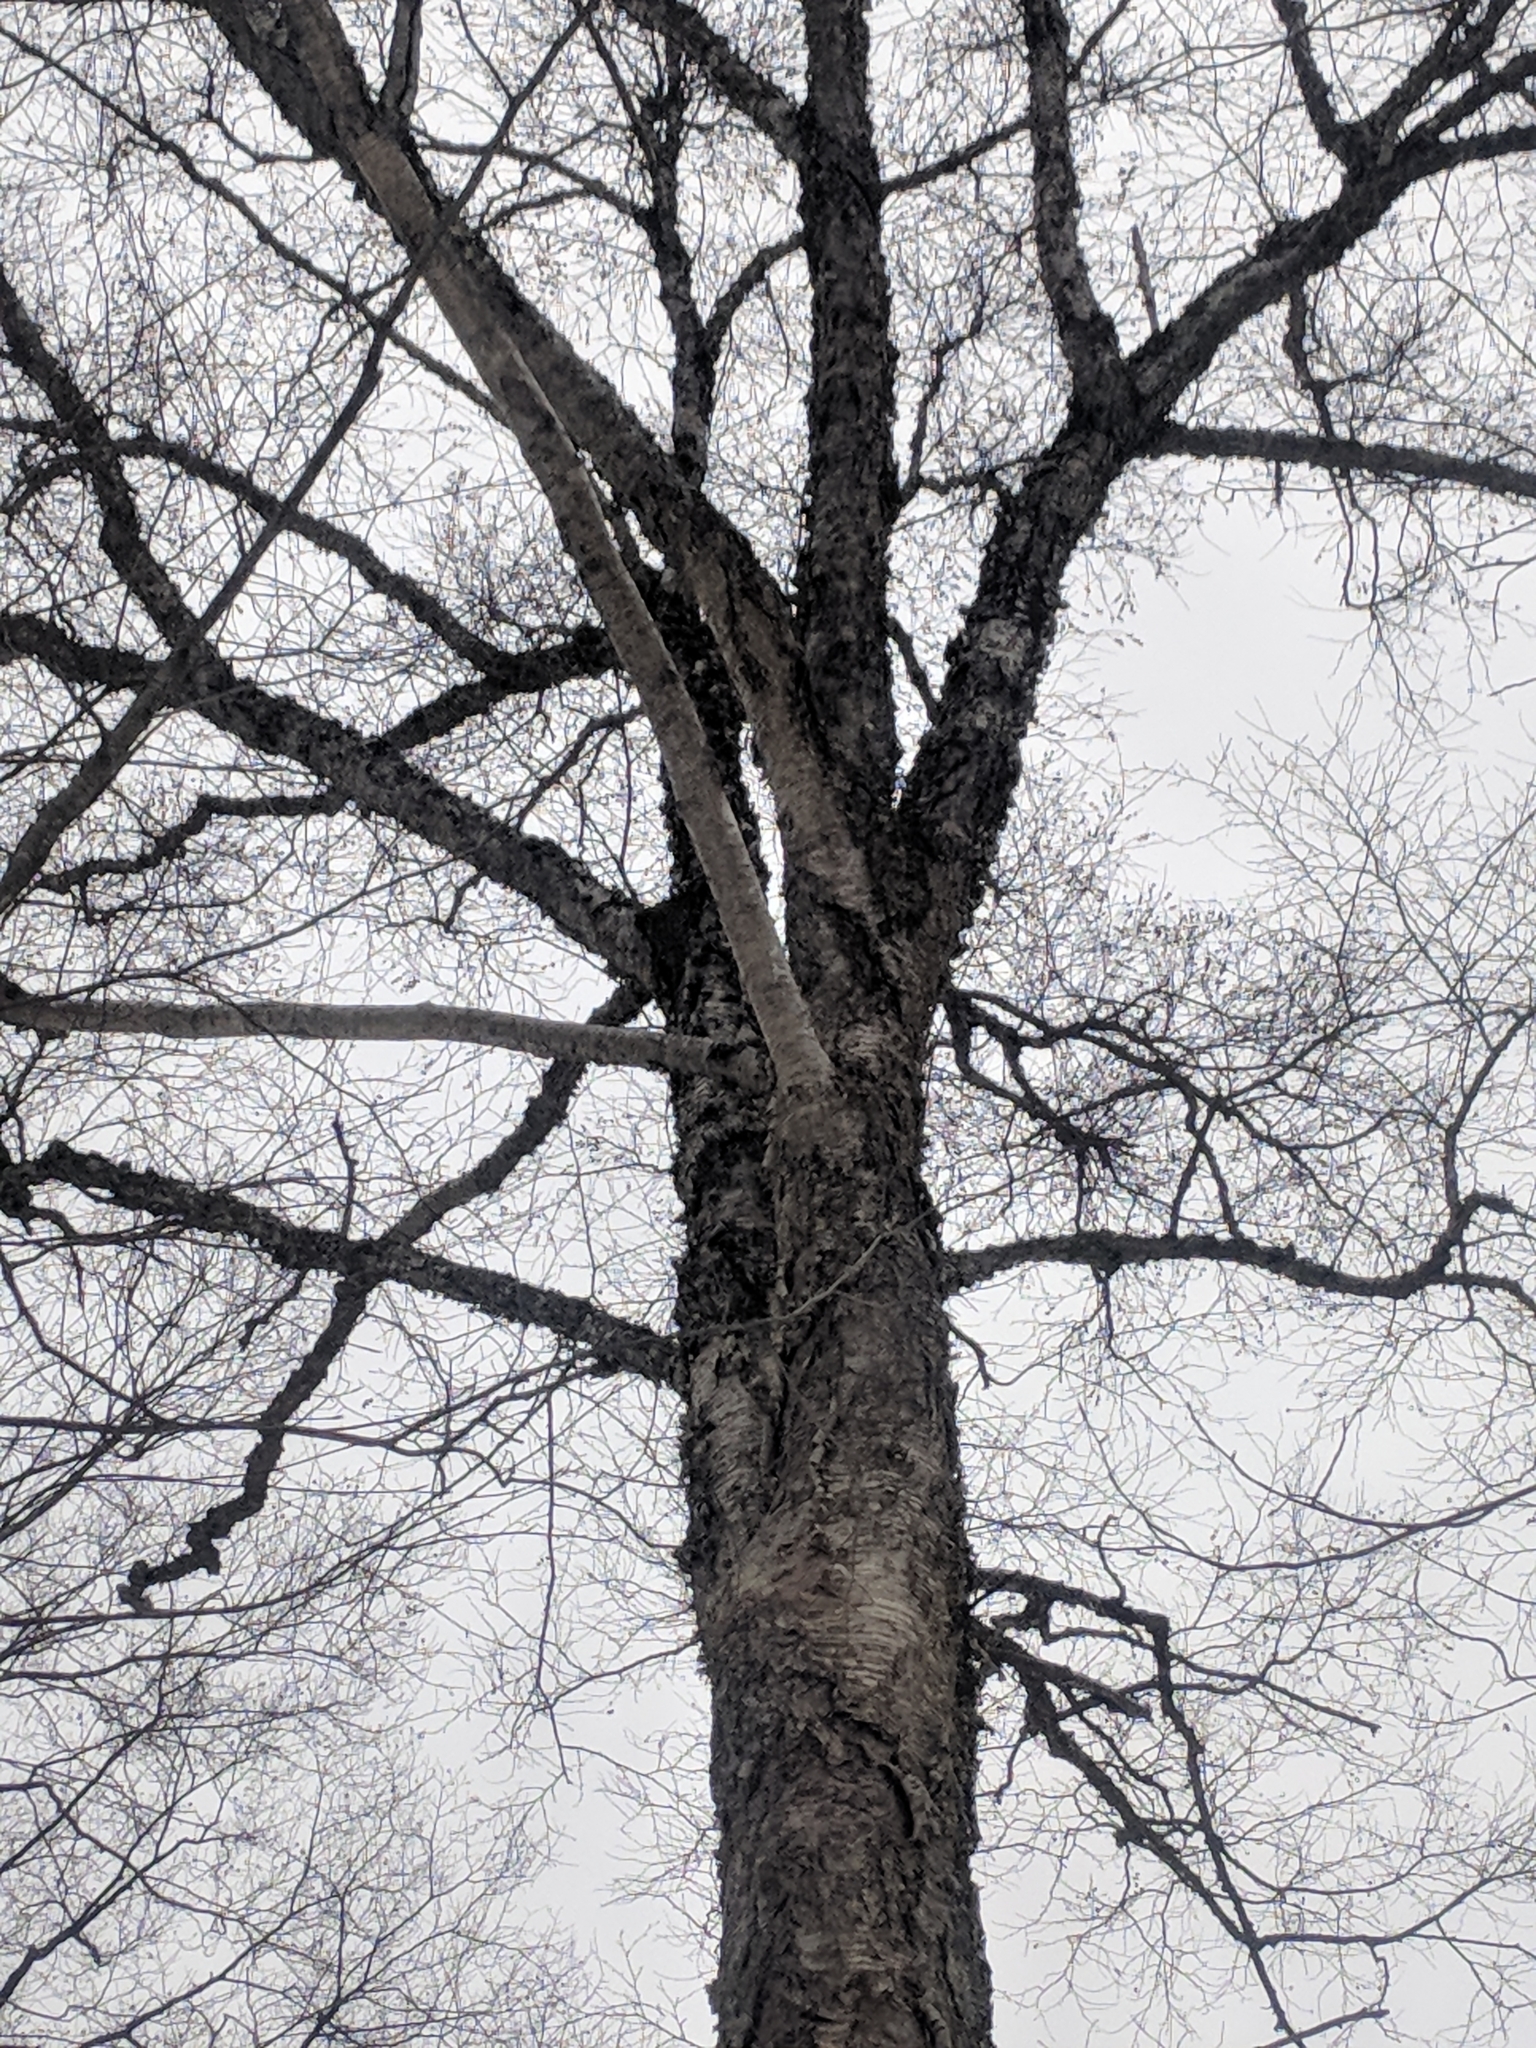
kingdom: Plantae
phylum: Tracheophyta
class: Magnoliopsida
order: Fagales
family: Betulaceae
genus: Betula
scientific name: Betula alleghaniensis
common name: Yellow birch
